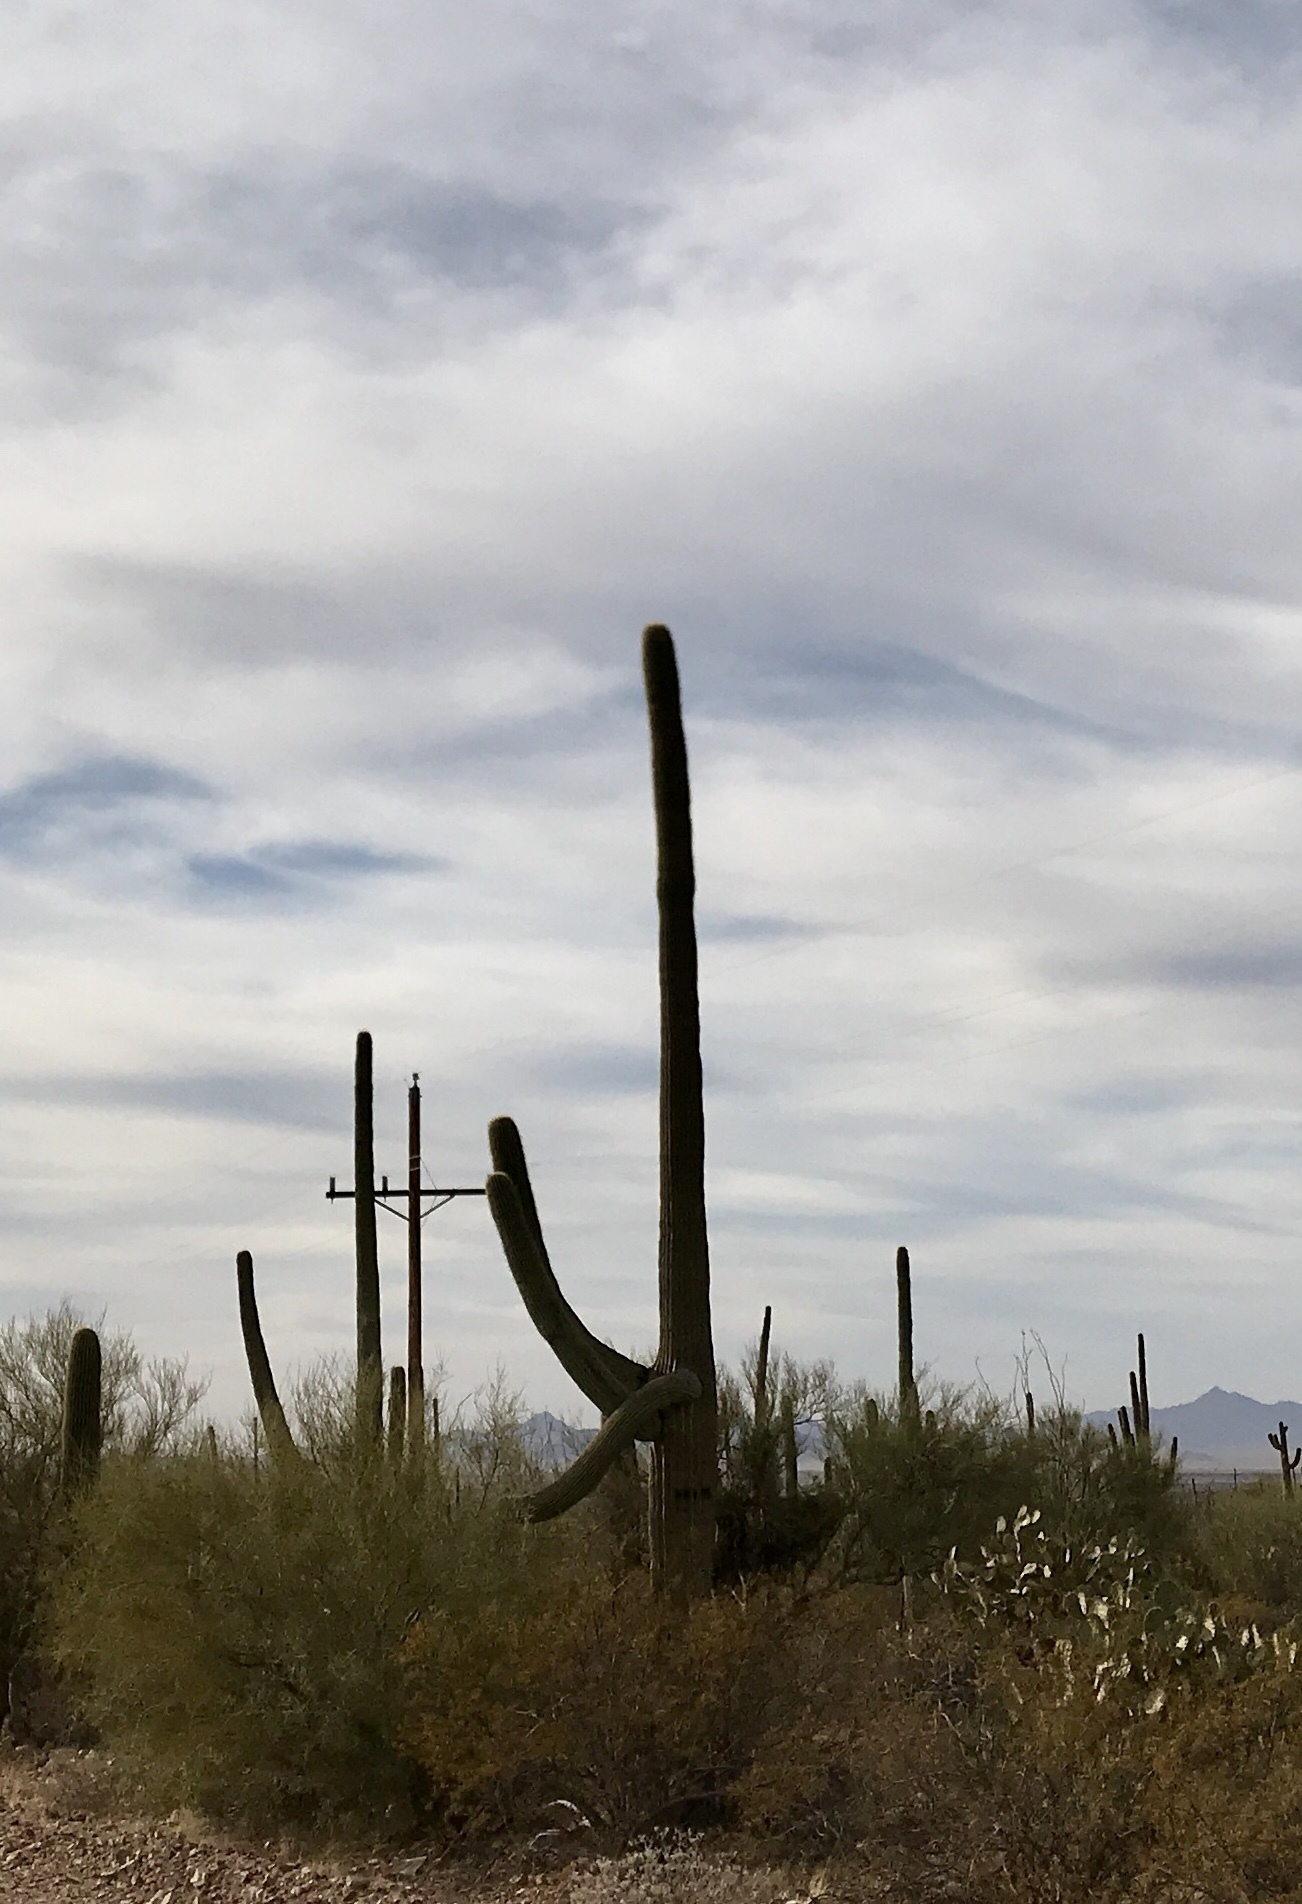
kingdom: Plantae
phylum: Tracheophyta
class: Magnoliopsida
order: Caryophyllales
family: Cactaceae
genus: Carnegiea
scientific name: Carnegiea gigantea
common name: Saguaro
